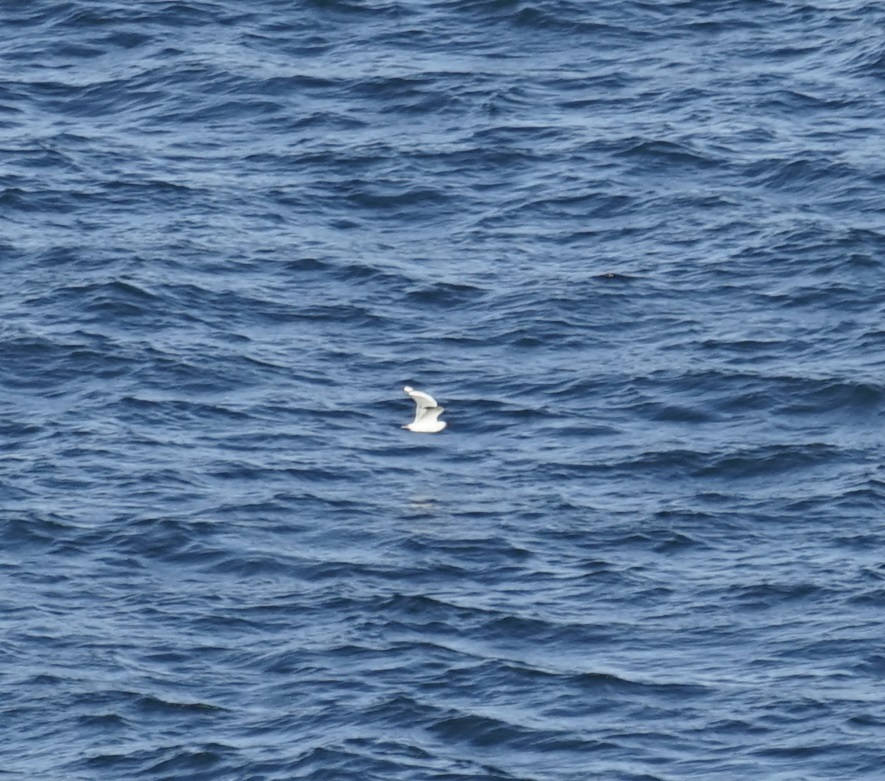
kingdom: Animalia
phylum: Chordata
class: Aves
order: Charadriiformes
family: Laridae
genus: Chroicocephalus
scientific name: Chroicocephalus novaehollandiae
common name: Silver gull
